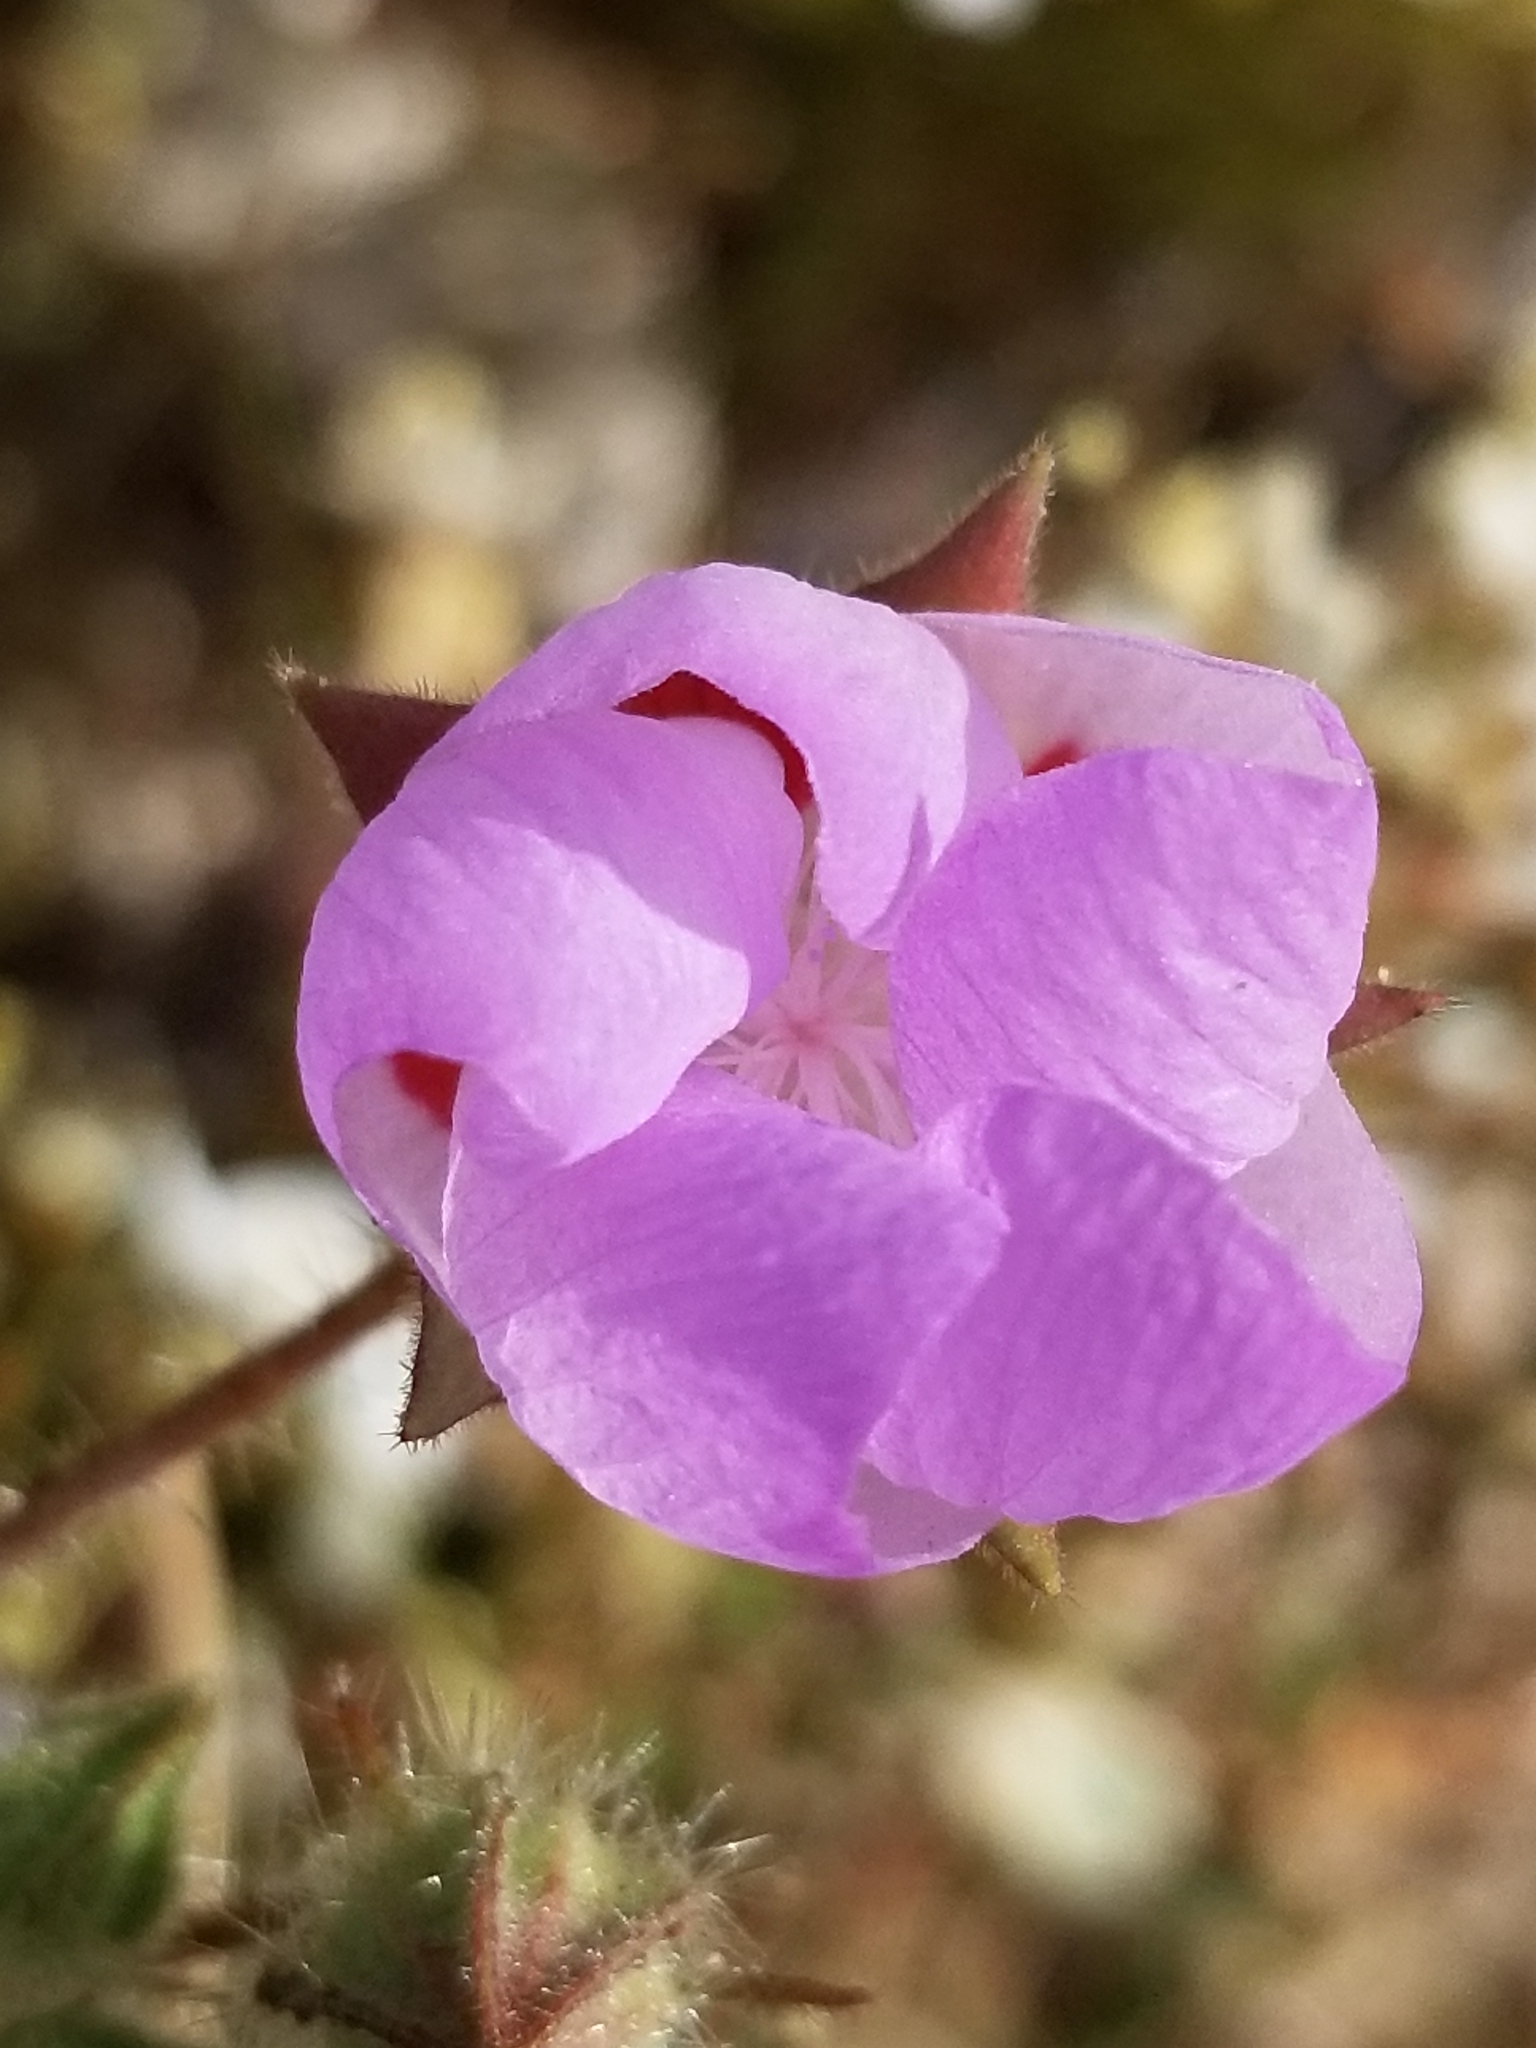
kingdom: Plantae
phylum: Tracheophyta
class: Magnoliopsida
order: Malvales
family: Malvaceae
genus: Eremalche
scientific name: Eremalche rotundifolia
